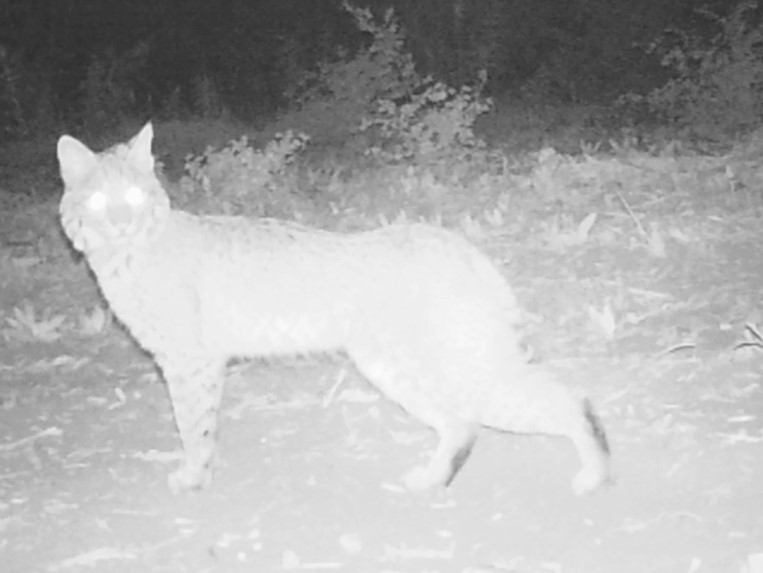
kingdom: Animalia
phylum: Chordata
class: Mammalia
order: Carnivora
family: Felidae
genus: Lynx
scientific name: Lynx rufus
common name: Bobcat
